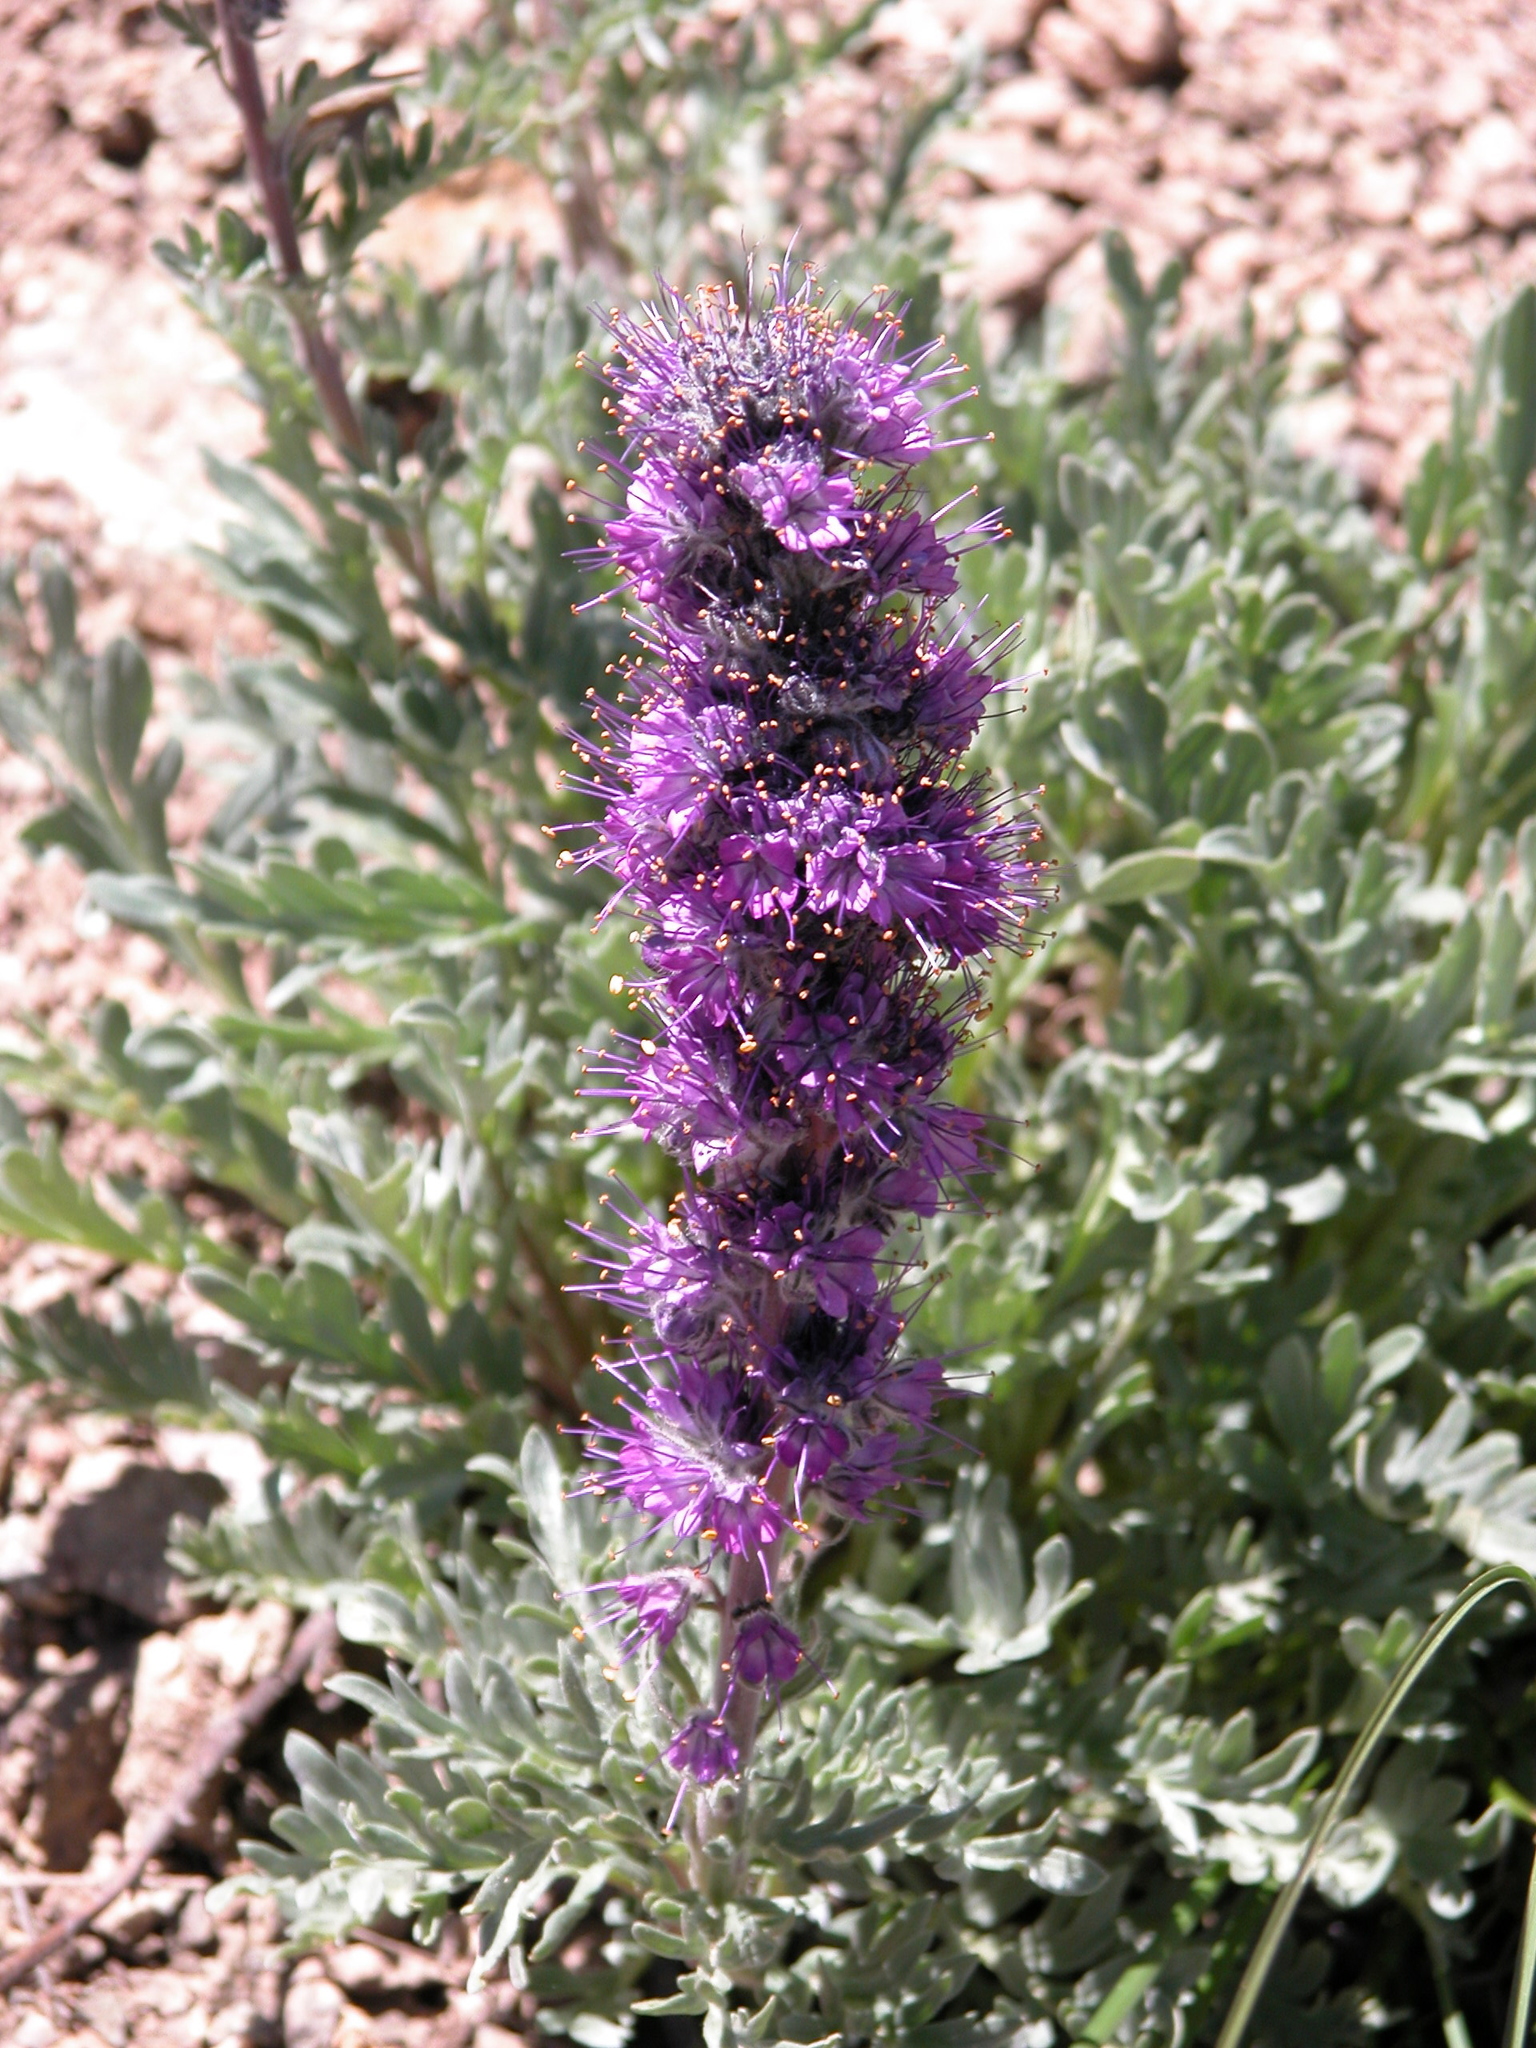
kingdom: Plantae
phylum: Tracheophyta
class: Magnoliopsida
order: Boraginales
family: Hydrophyllaceae
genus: Phacelia
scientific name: Phacelia sericea
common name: Silky phacelia
